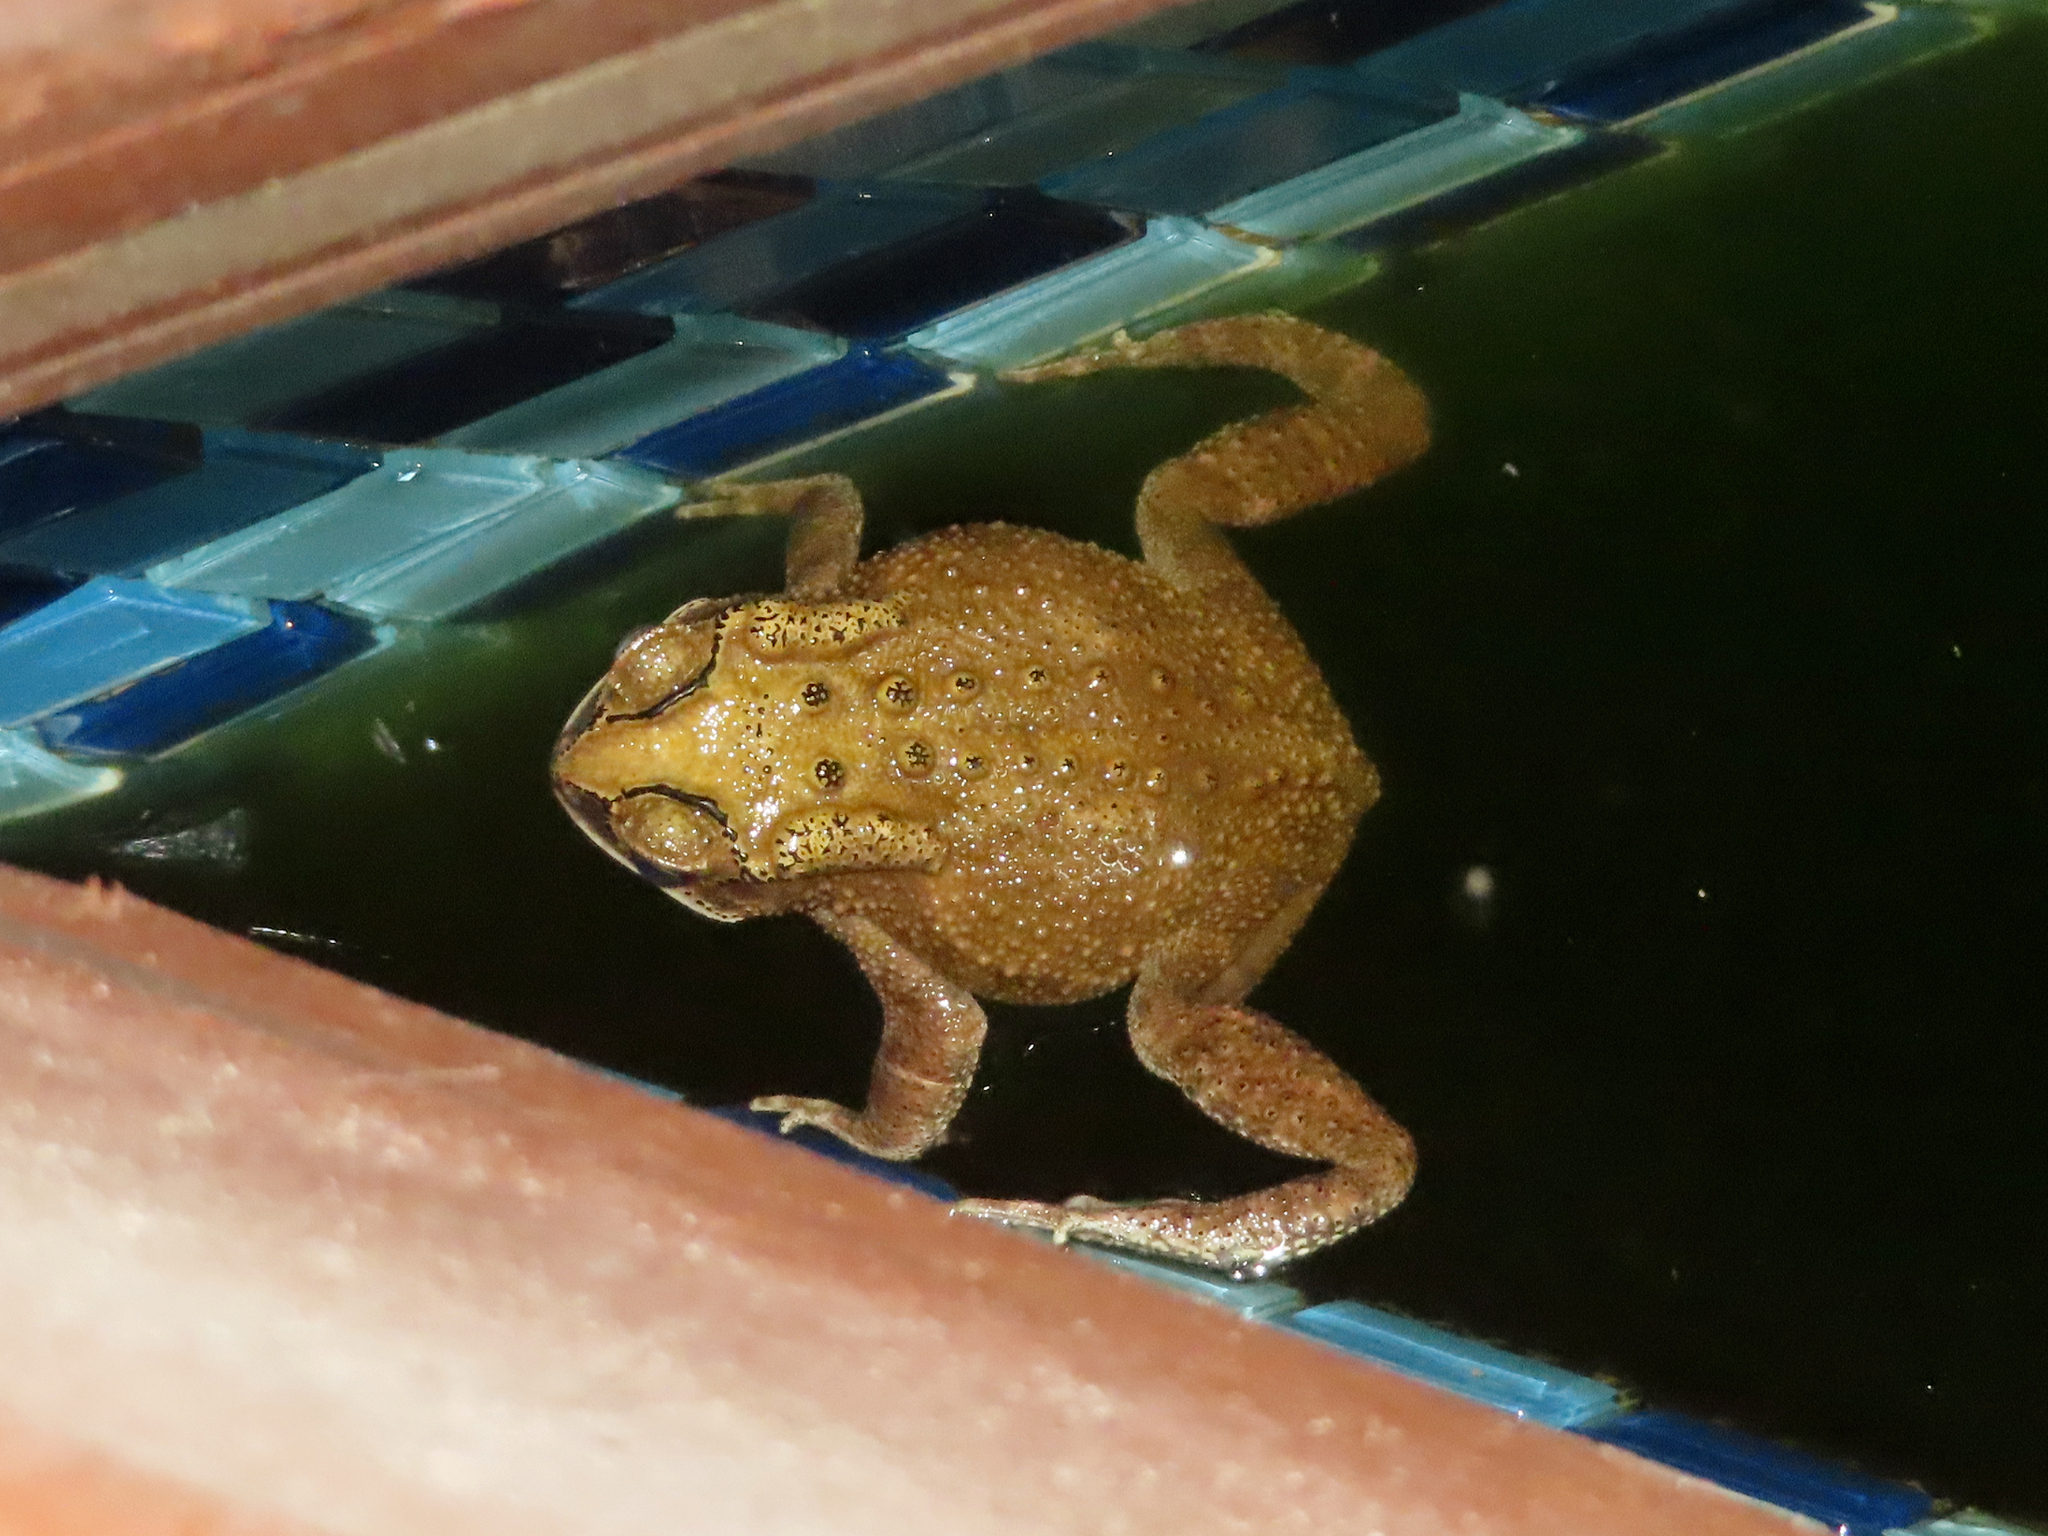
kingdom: Animalia
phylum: Chordata
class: Amphibia
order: Anura
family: Bufonidae
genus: Duttaphrynus
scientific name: Duttaphrynus melanostictus
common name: Common sunda toad
